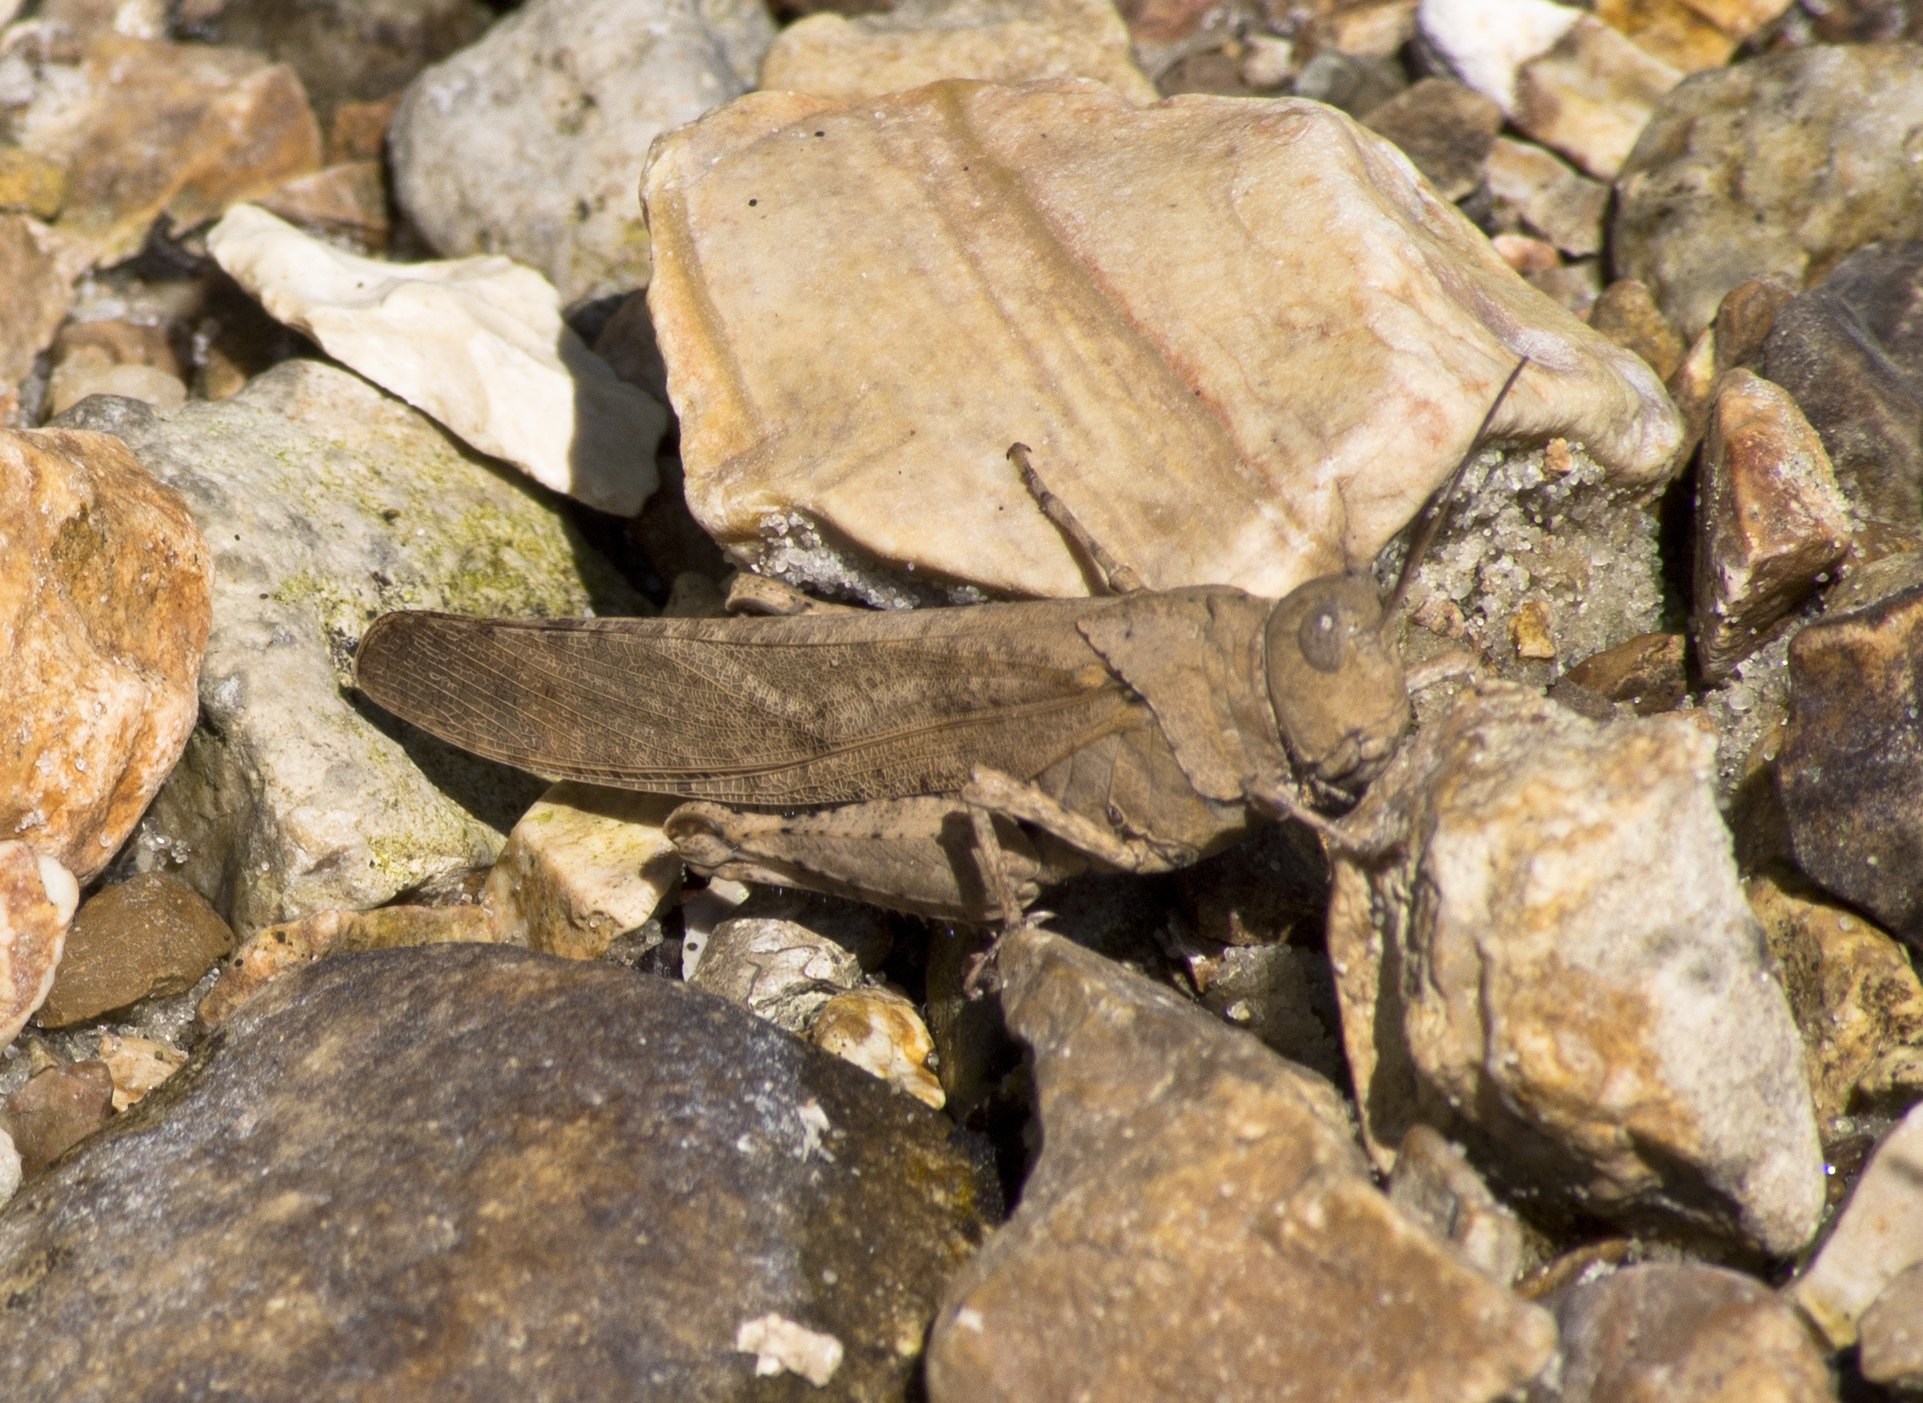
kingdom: Animalia
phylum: Arthropoda
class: Insecta
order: Orthoptera
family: Acrididae
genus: Dissosteira
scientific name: Dissosteira carolina
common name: Carolina grasshopper
